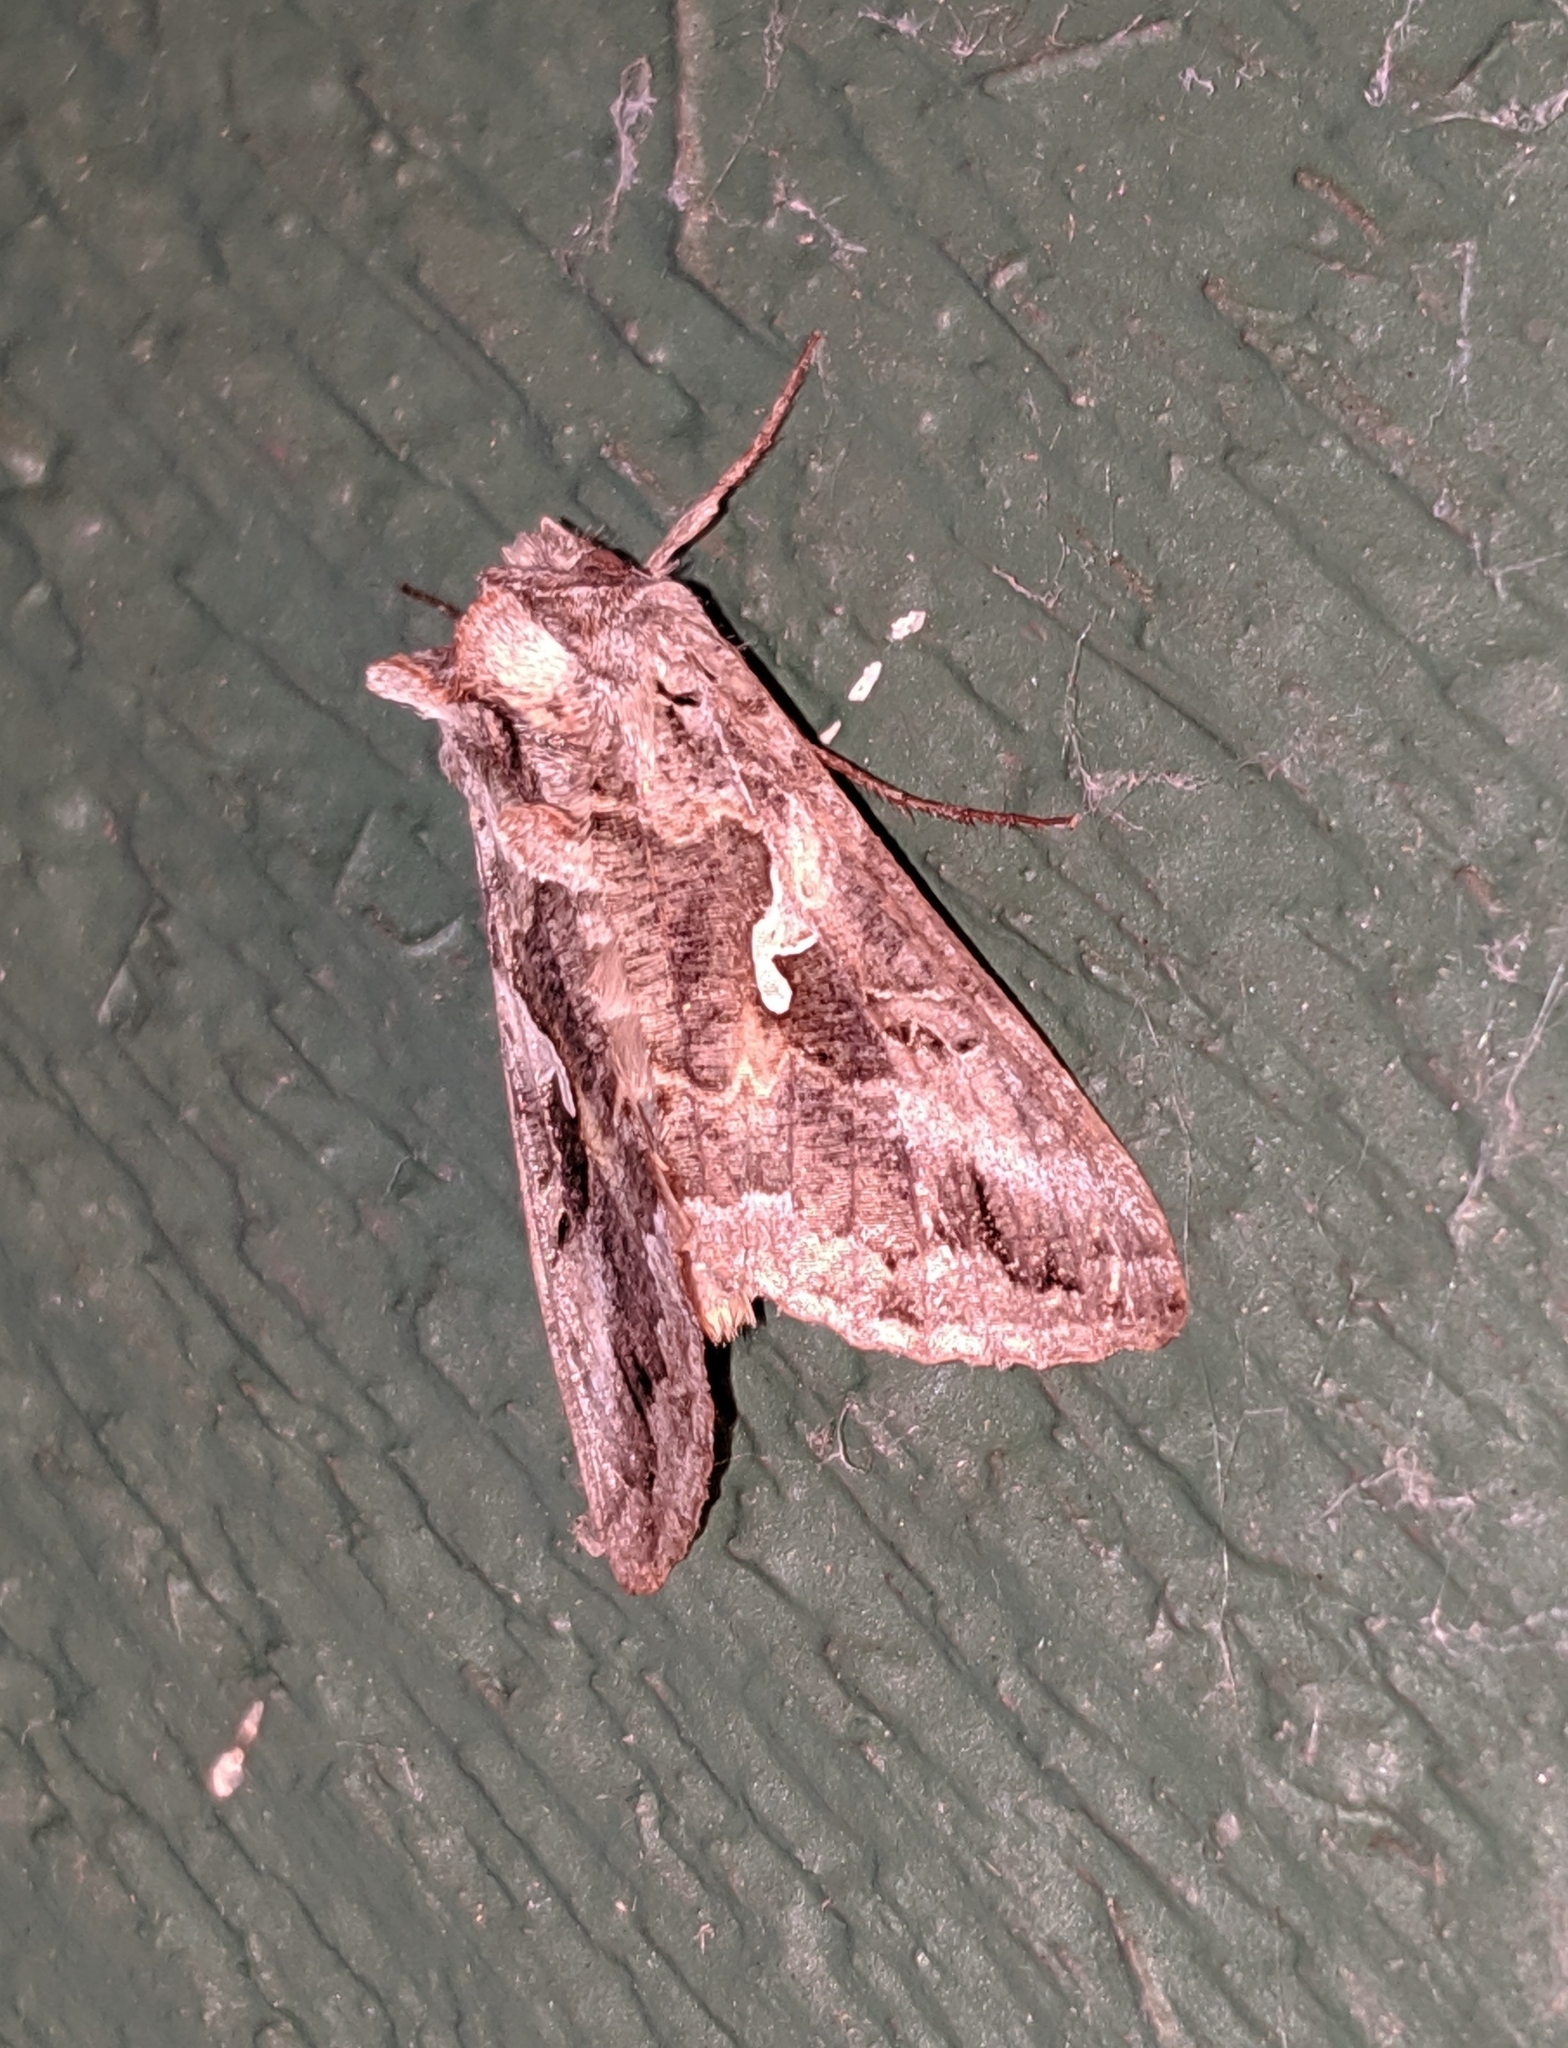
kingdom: Animalia
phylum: Arthropoda
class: Insecta
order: Lepidoptera
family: Noctuidae
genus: Autographa
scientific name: Autographa californica
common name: Alfalfa looper
